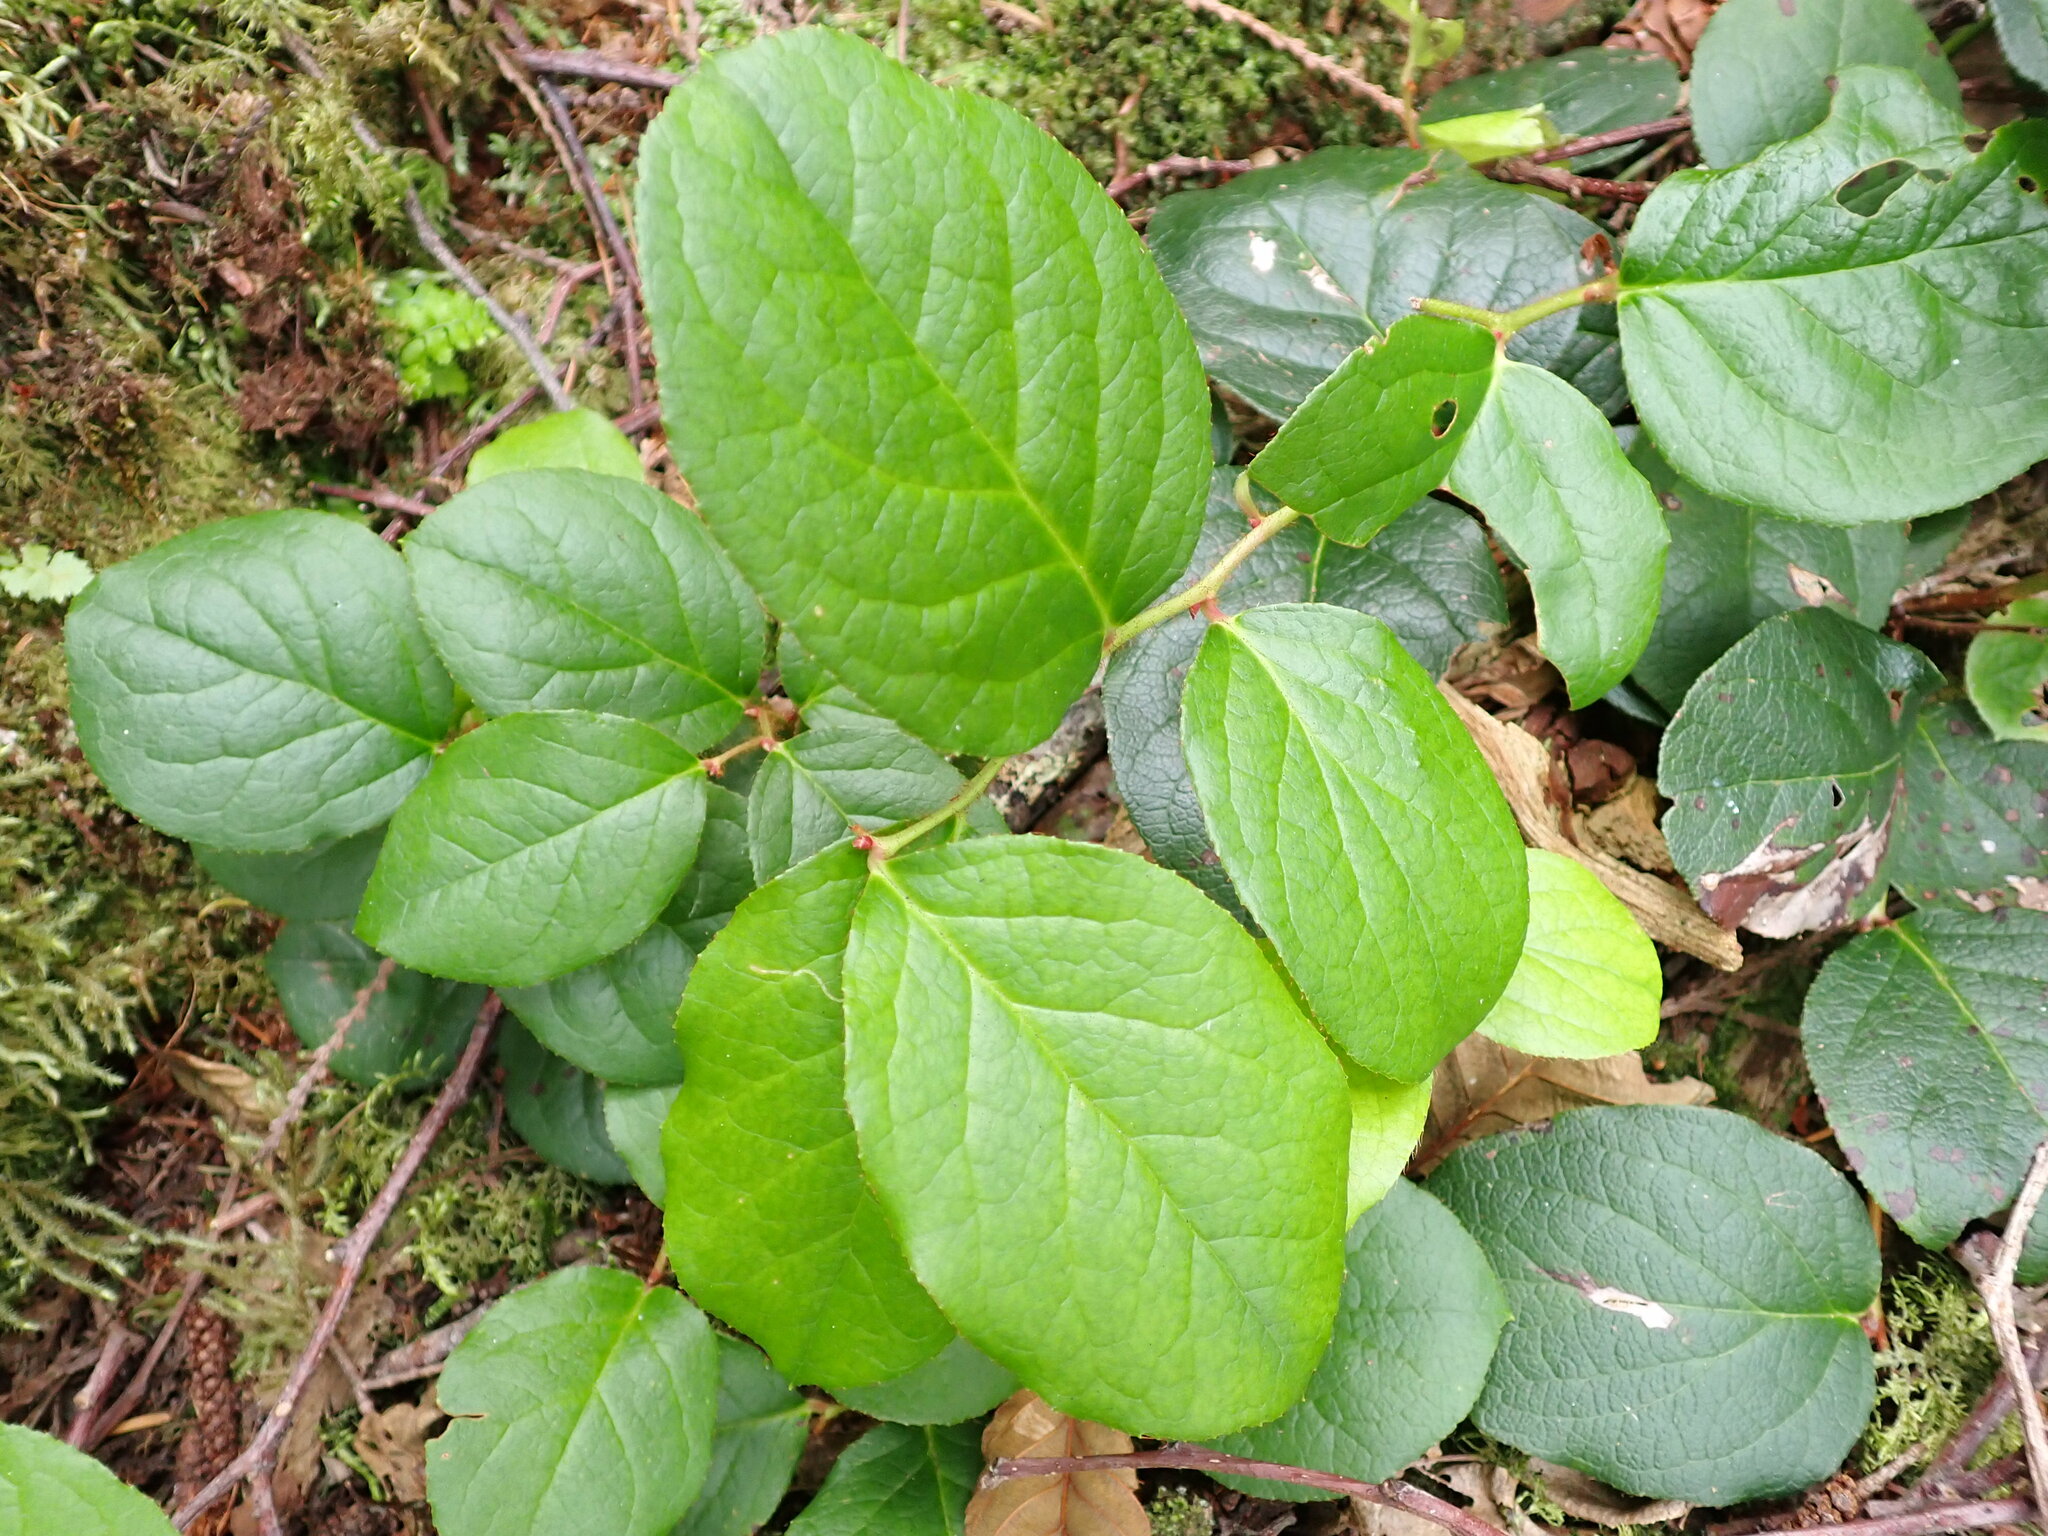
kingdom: Plantae
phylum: Tracheophyta
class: Magnoliopsida
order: Ericales
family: Ericaceae
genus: Gaultheria
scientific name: Gaultheria shallon
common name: Shallon
